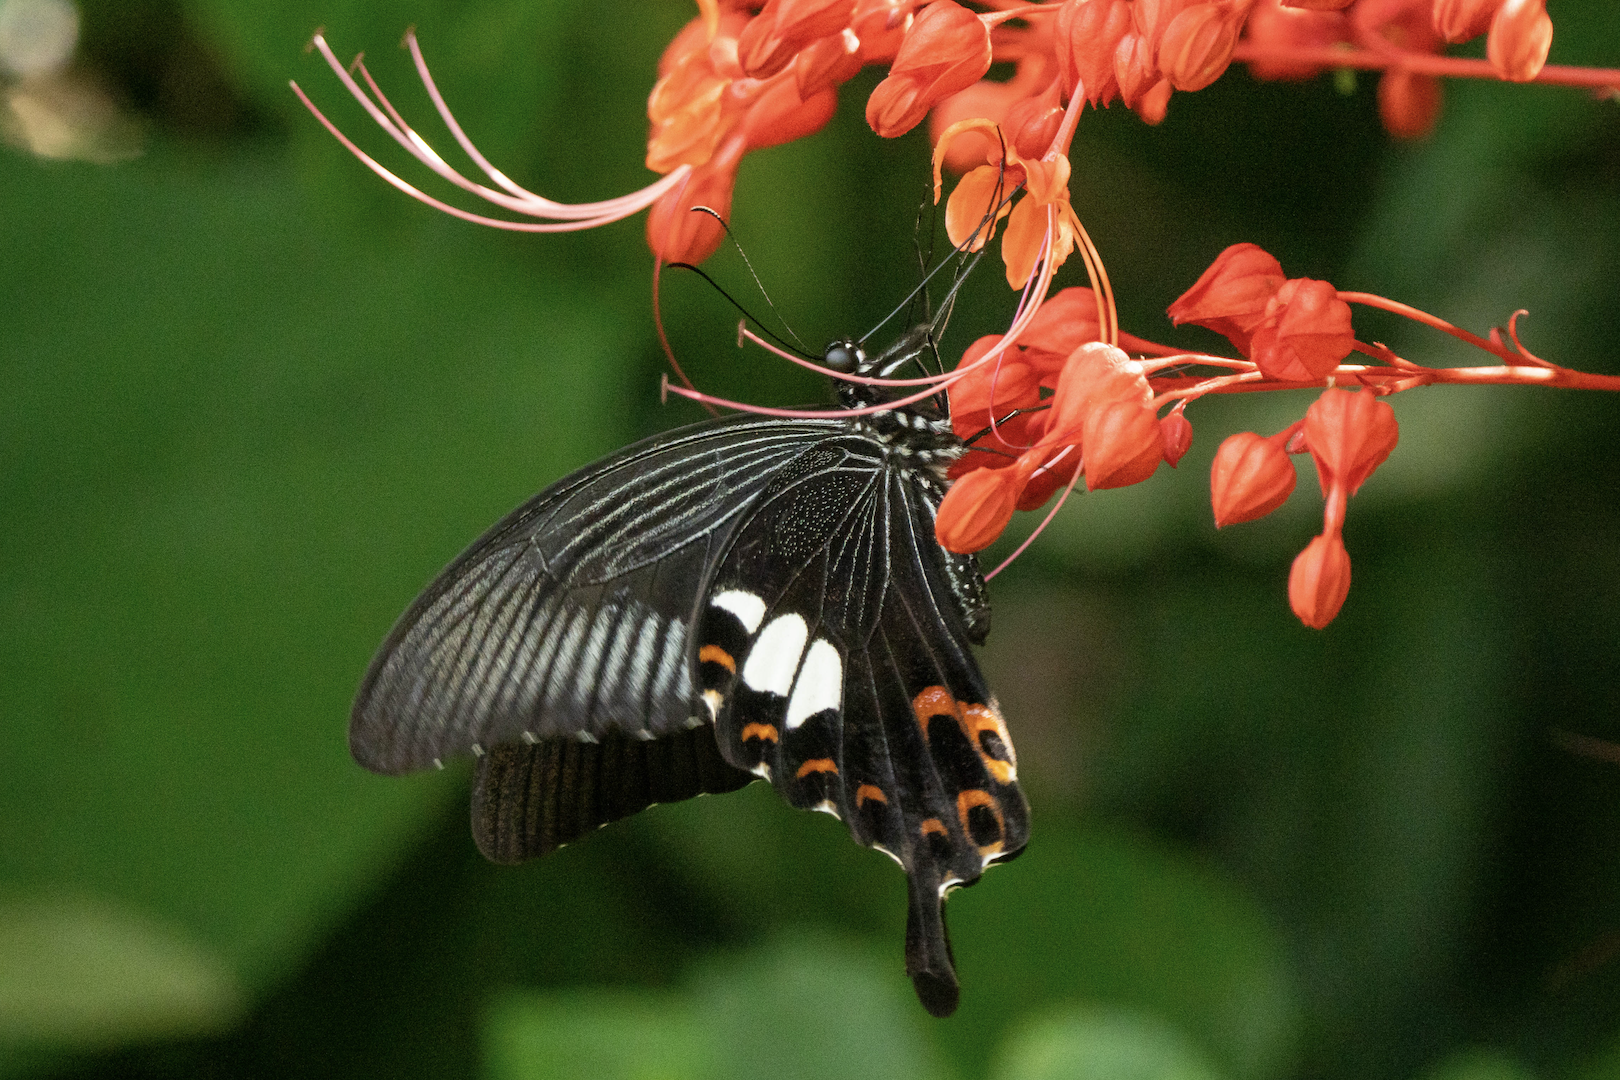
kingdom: Animalia
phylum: Arthropoda
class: Insecta
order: Lepidoptera
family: Papilionidae
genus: Papilio
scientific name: Papilio helenus
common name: Red helen
